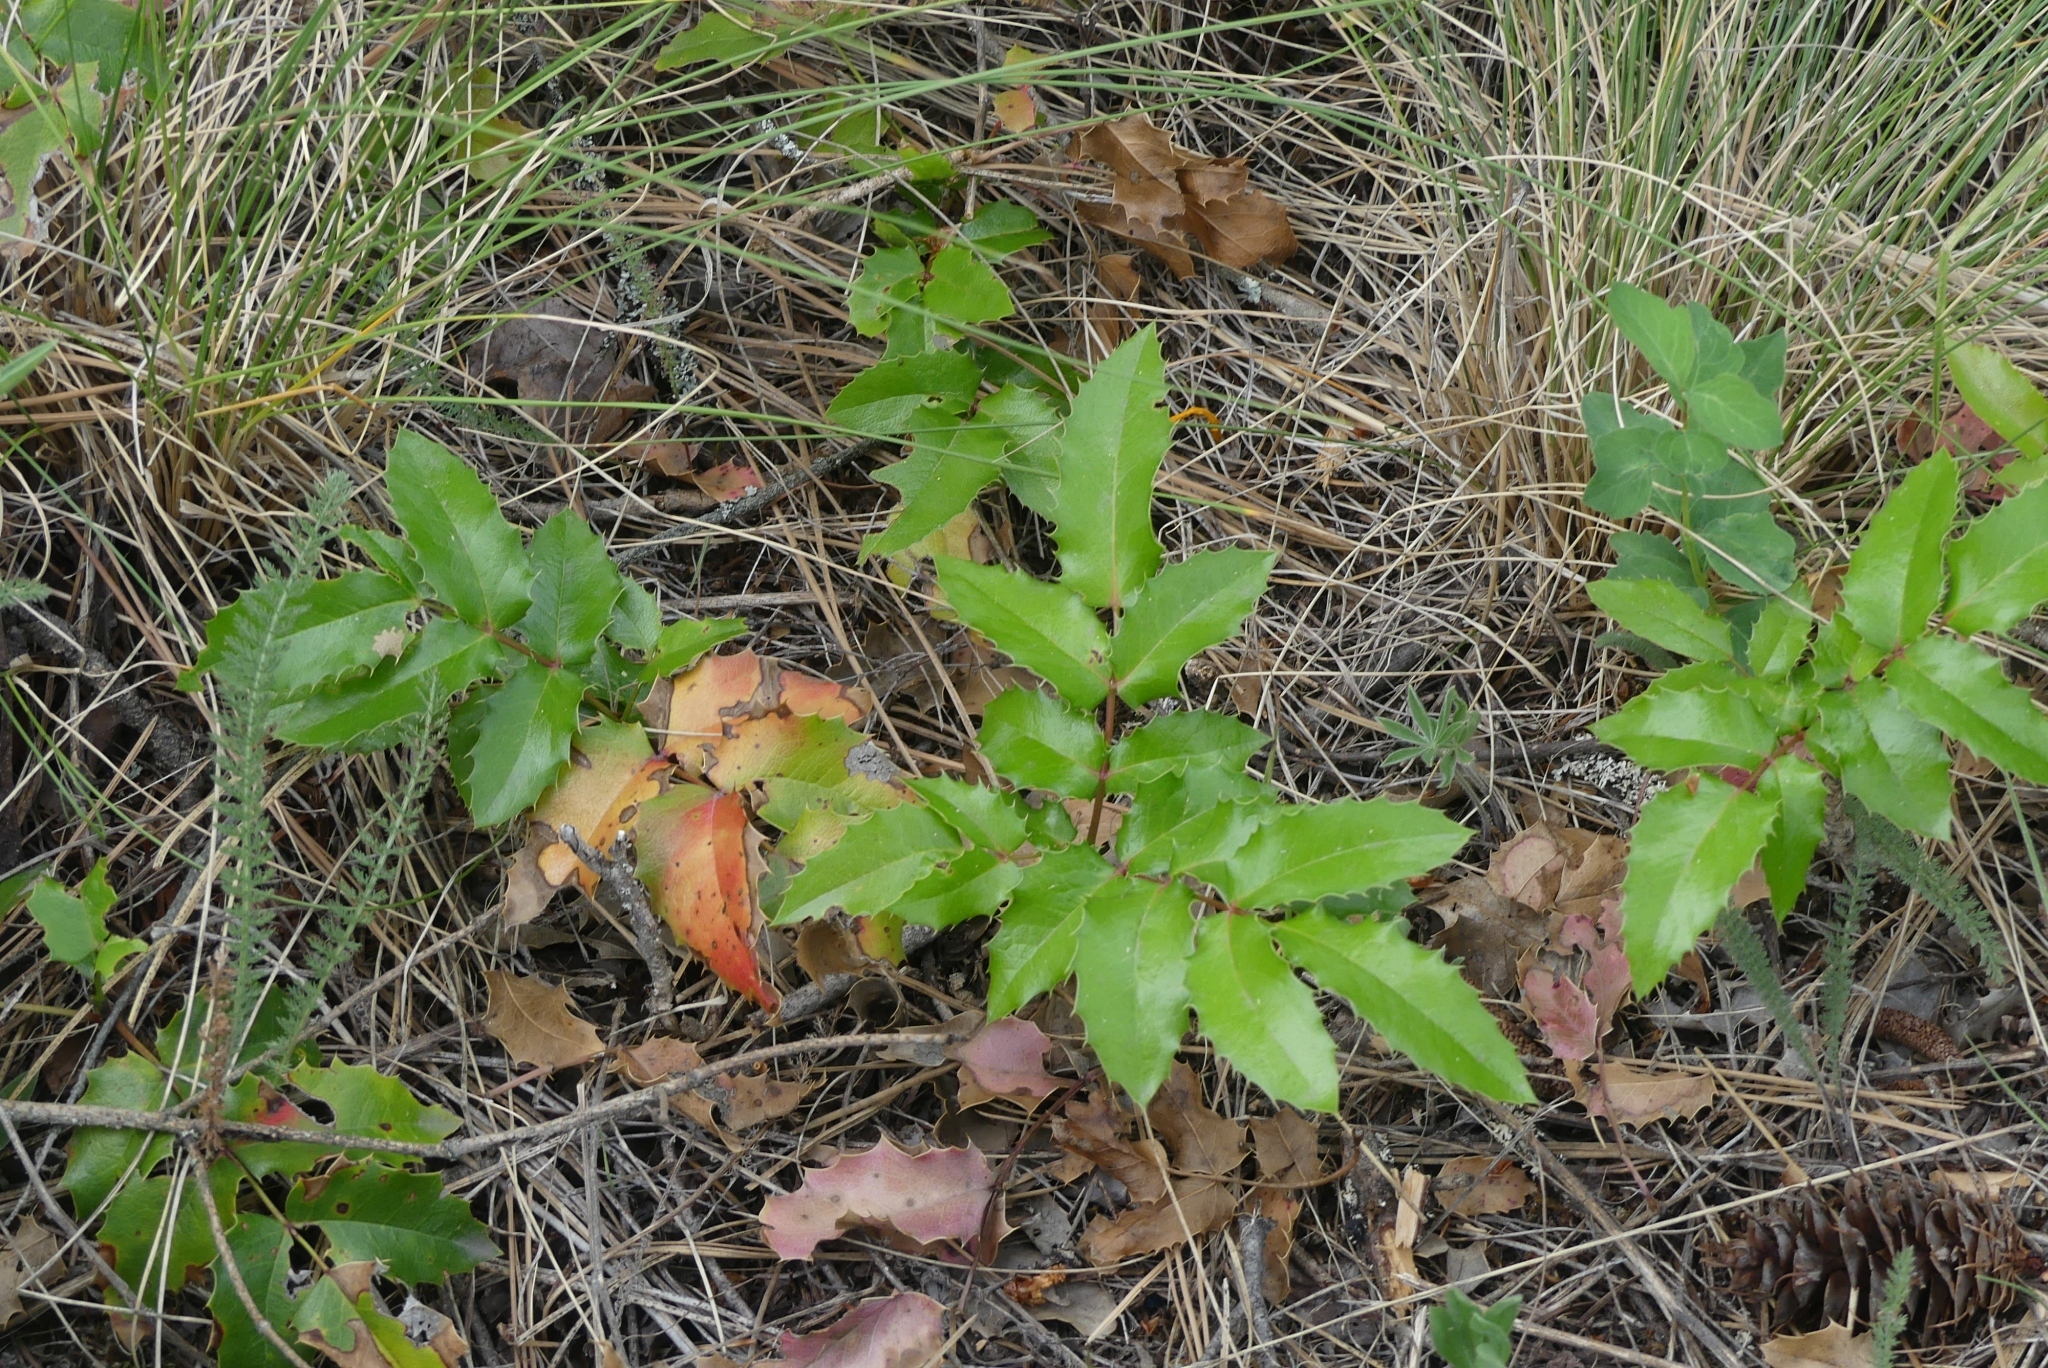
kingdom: Plantae
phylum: Tracheophyta
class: Magnoliopsida
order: Ranunculales
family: Berberidaceae
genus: Mahonia
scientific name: Mahonia aquifolium
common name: Oregon-grape
